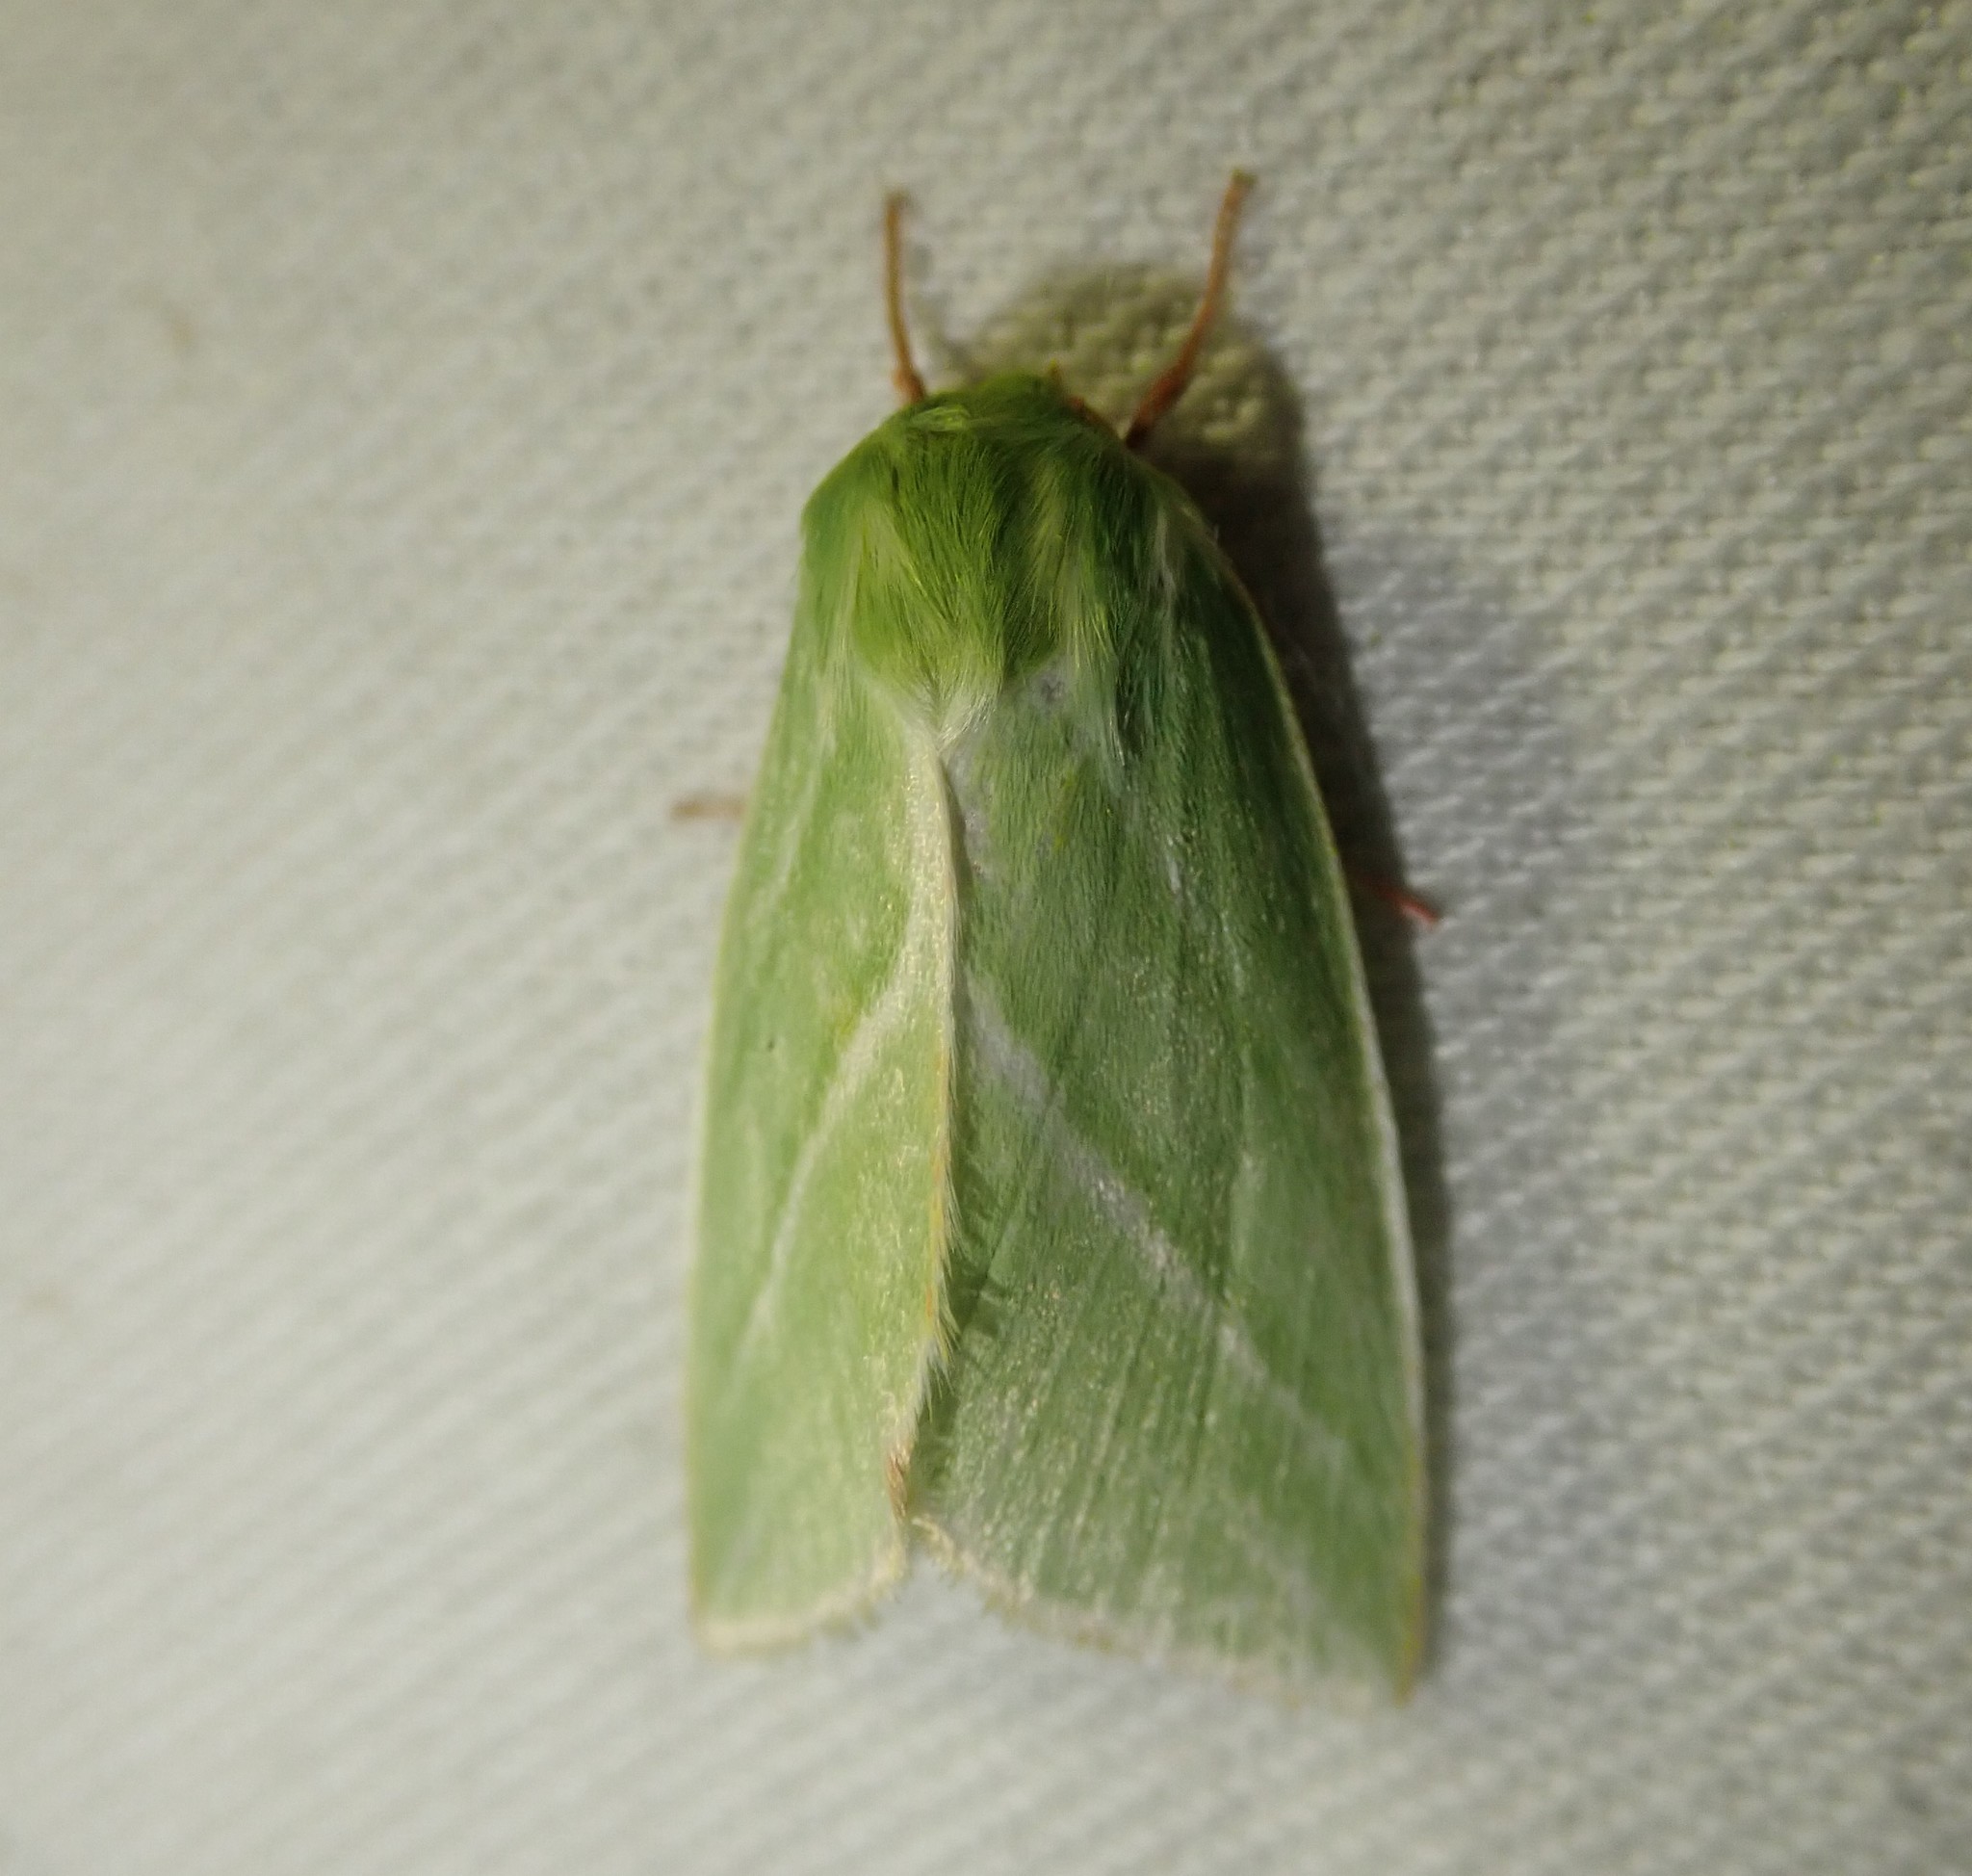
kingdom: Animalia
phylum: Arthropoda
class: Insecta
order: Lepidoptera
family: Nolidae
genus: Pseudoips
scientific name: Pseudoips prasinana
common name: Green silver-lines
